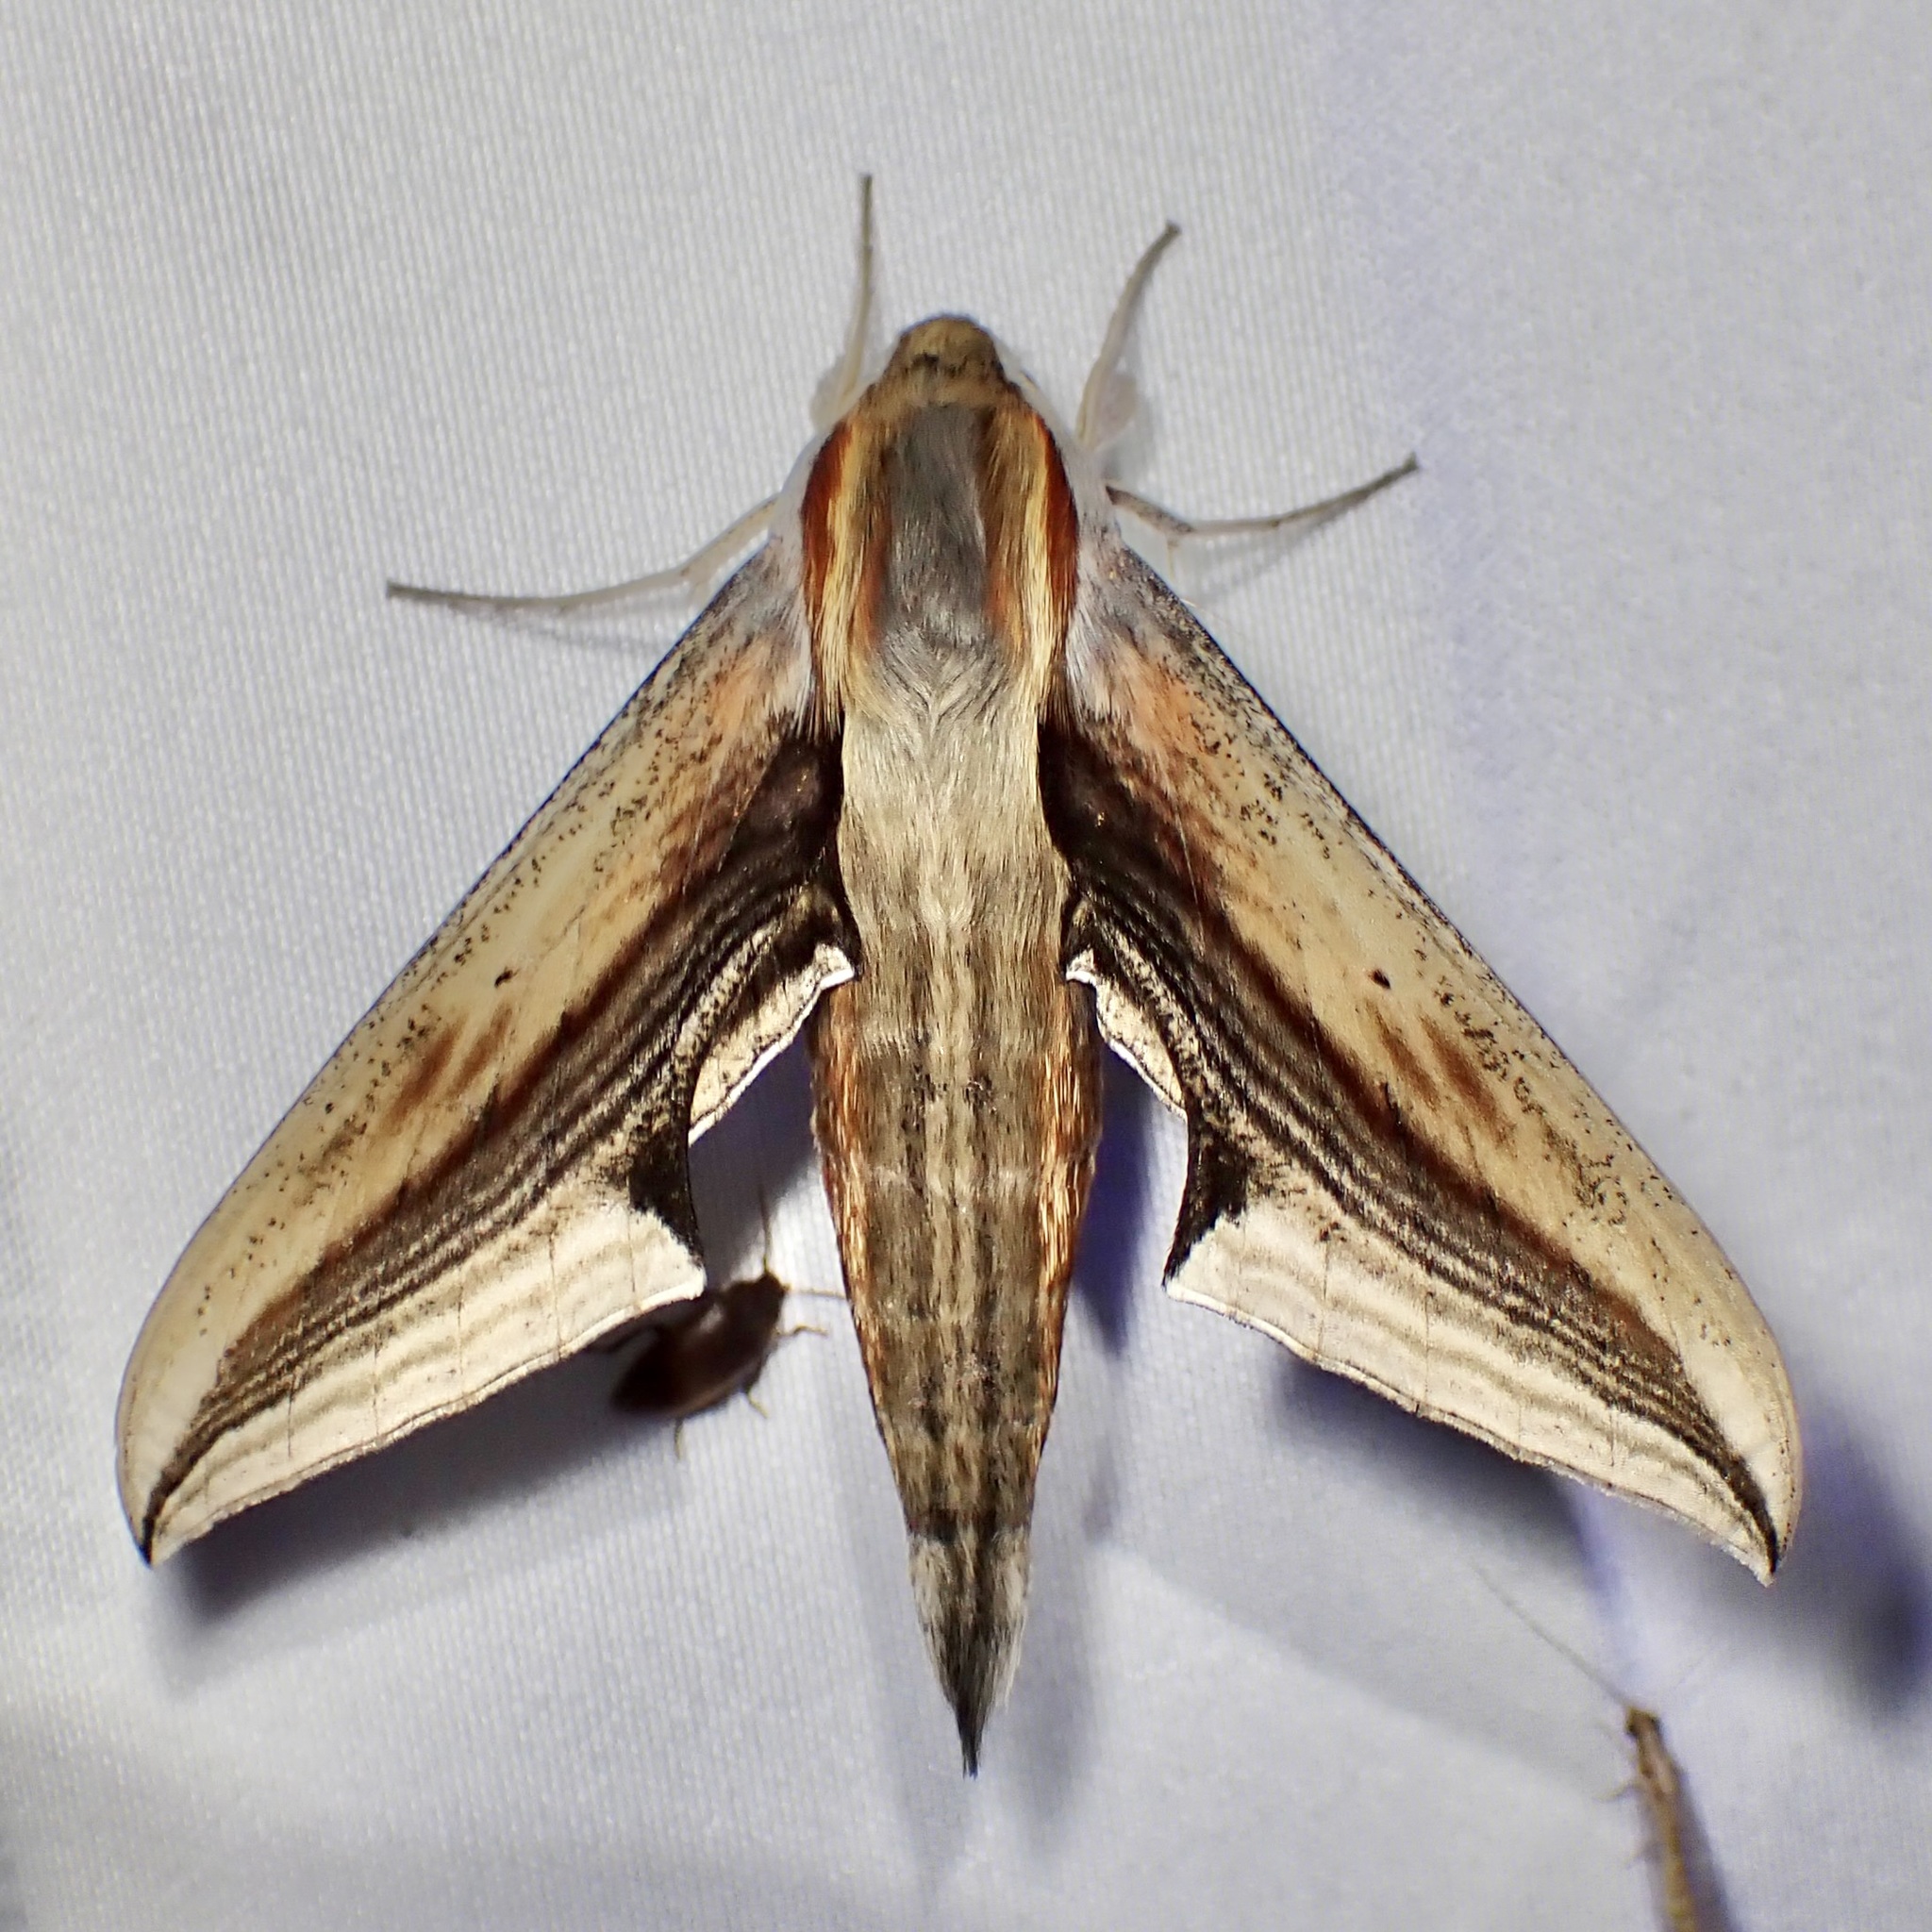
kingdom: Animalia
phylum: Arthropoda
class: Insecta
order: Lepidoptera
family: Sphingidae
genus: Xylophanes
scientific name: Xylophanes falco
